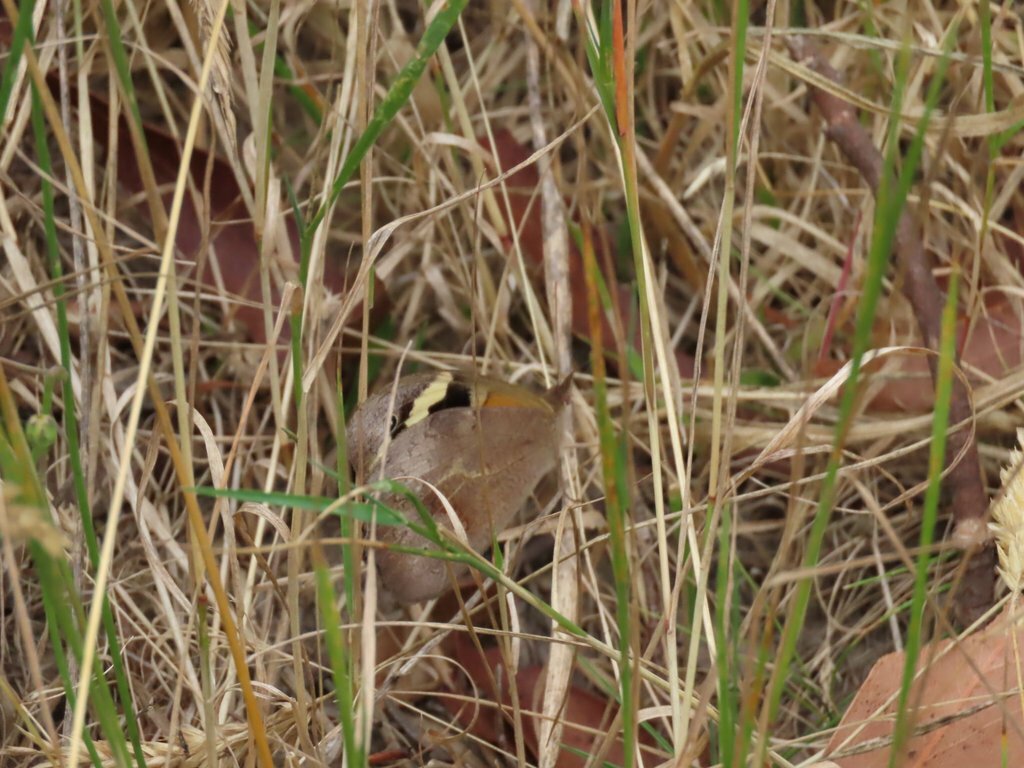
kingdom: Animalia
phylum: Arthropoda
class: Insecta
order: Lepidoptera
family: Nymphalidae
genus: Heteronympha
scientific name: Heteronympha merope
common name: Common brown
